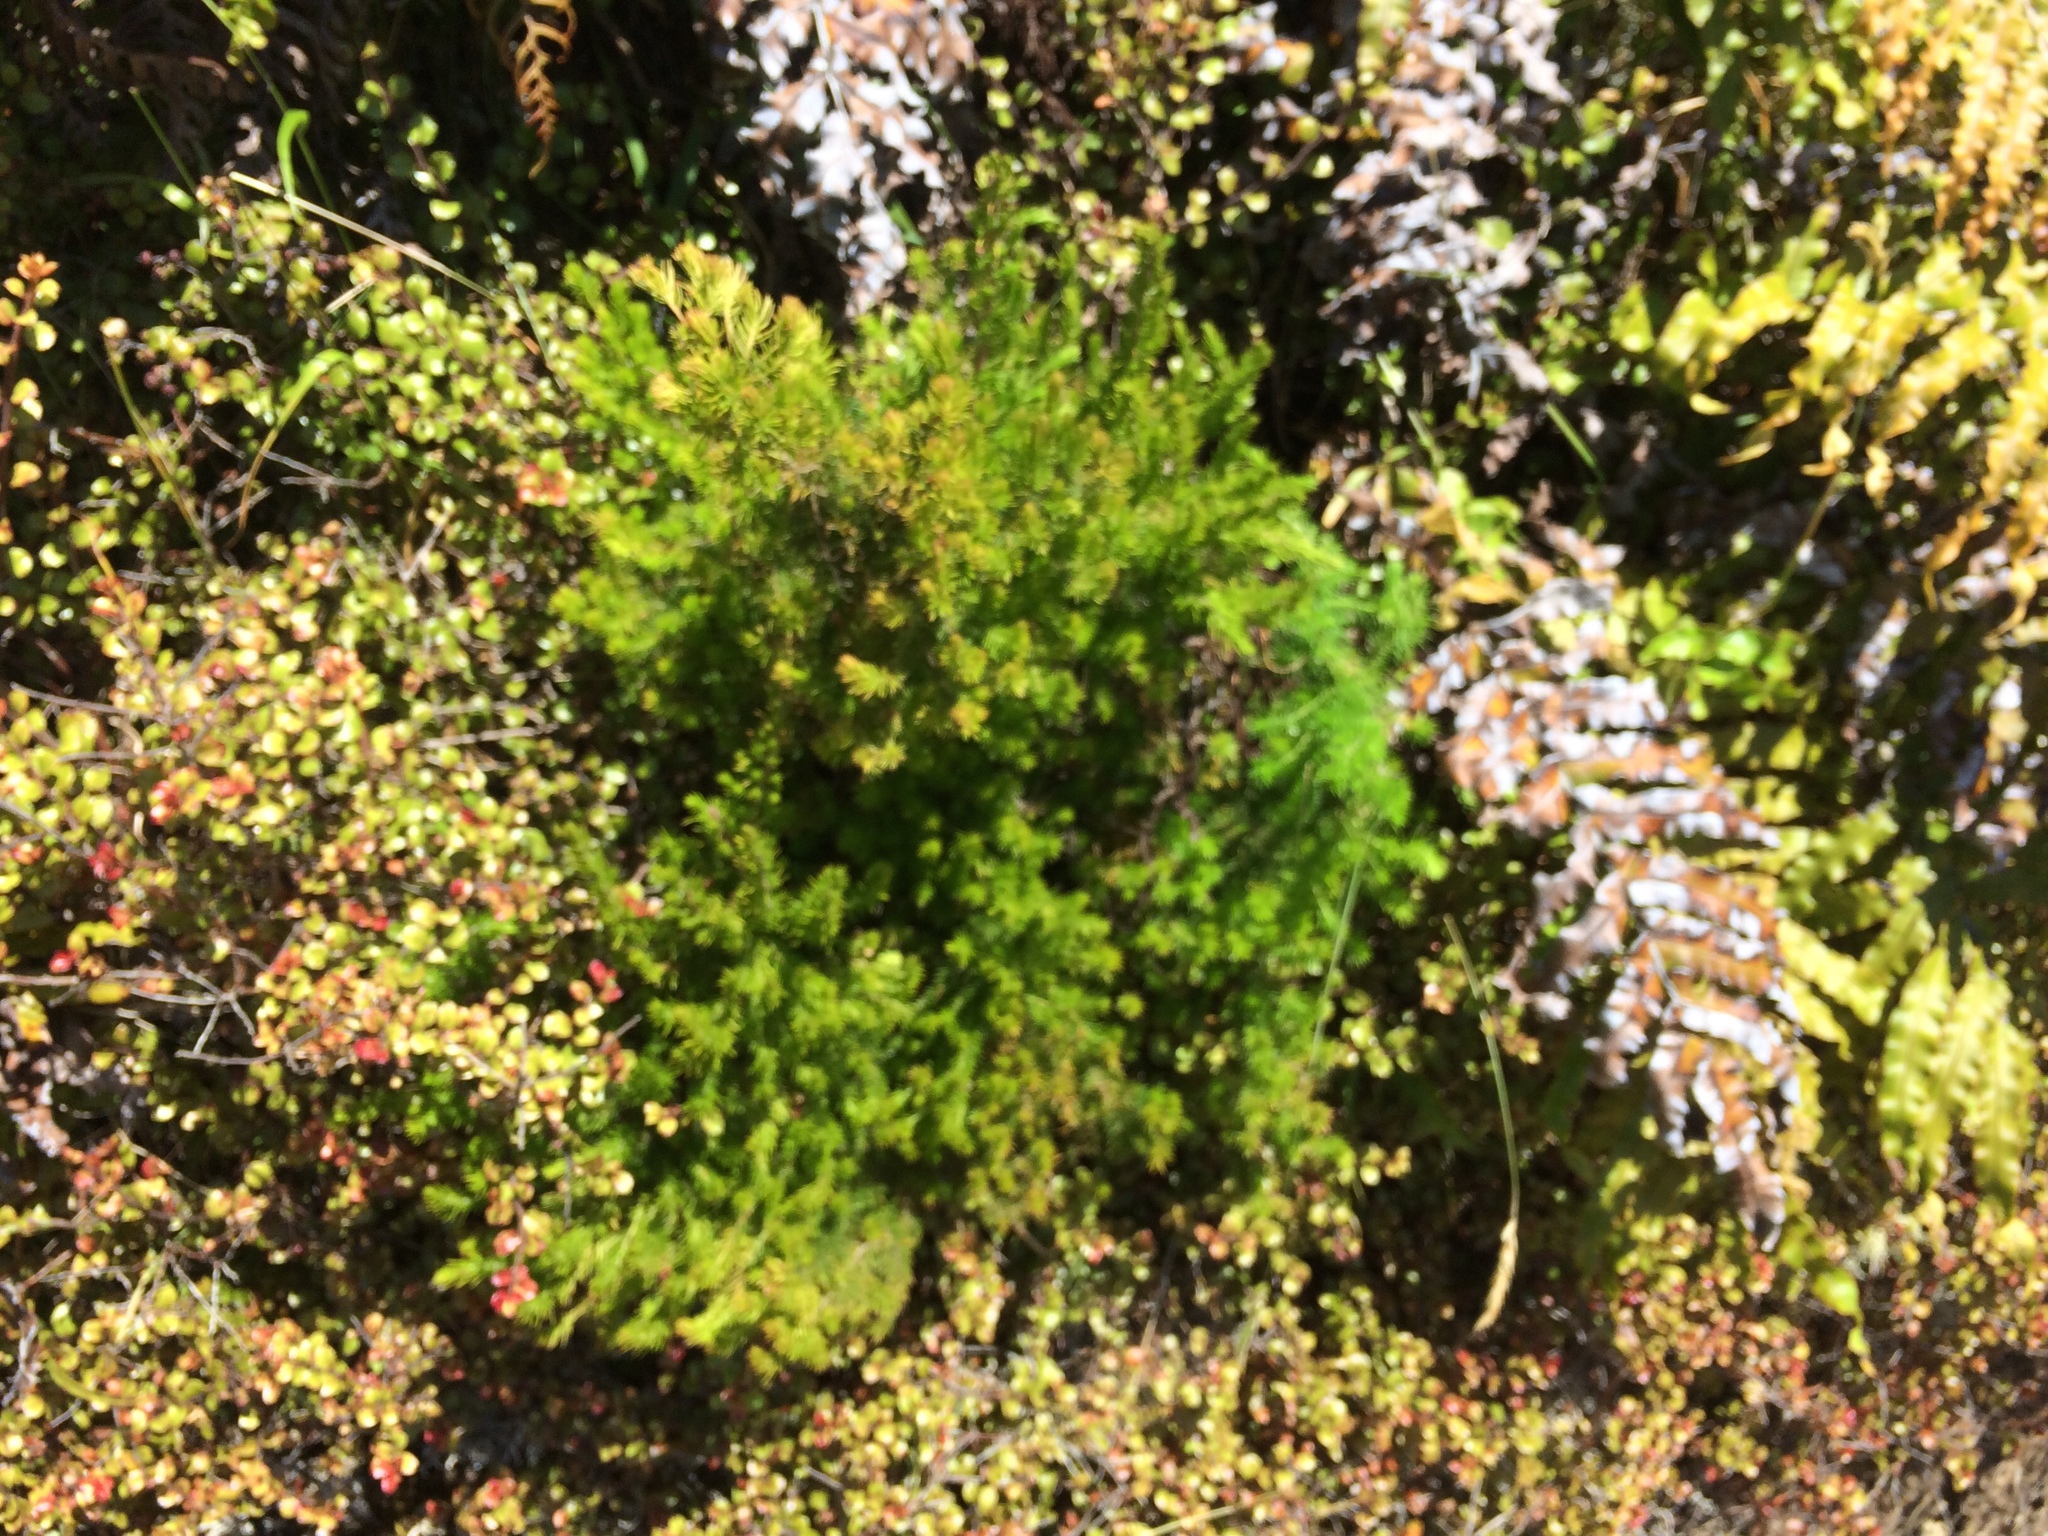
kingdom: Plantae
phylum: Tracheophyta
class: Magnoliopsida
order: Ericales
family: Ericaceae
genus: Erica
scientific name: Erica lusitanica
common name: Spanish heath
